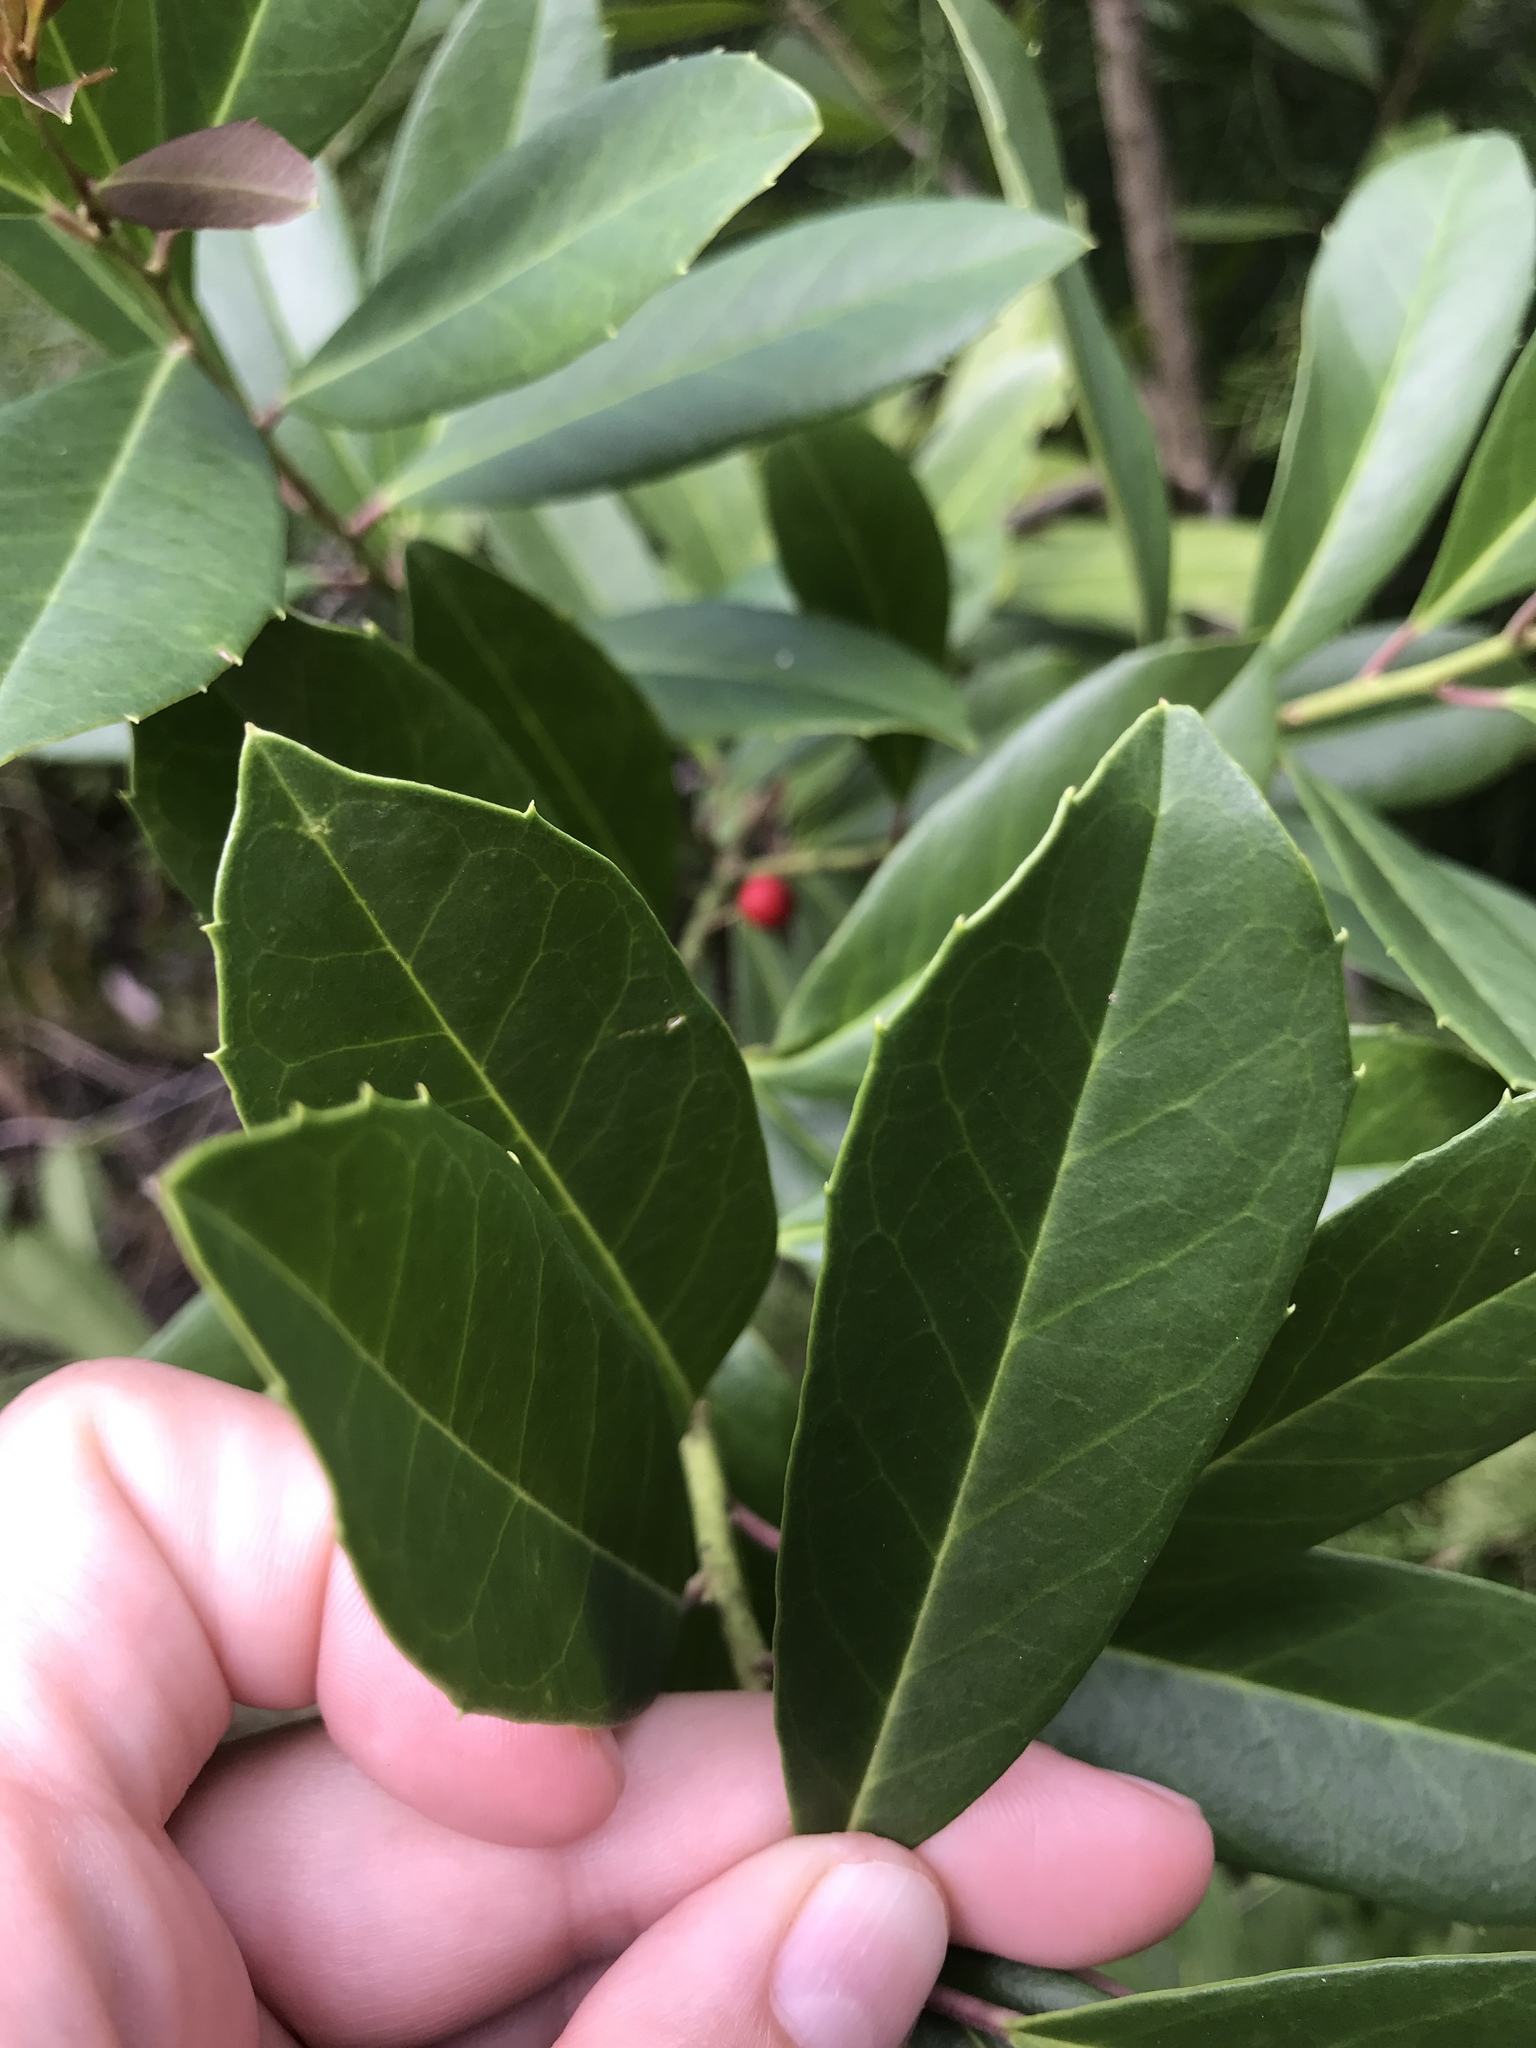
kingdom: Plantae
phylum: Tracheophyta
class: Magnoliopsida
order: Aquifoliales
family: Aquifoliaceae
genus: Ilex
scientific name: Ilex cassine
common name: Dahoon
